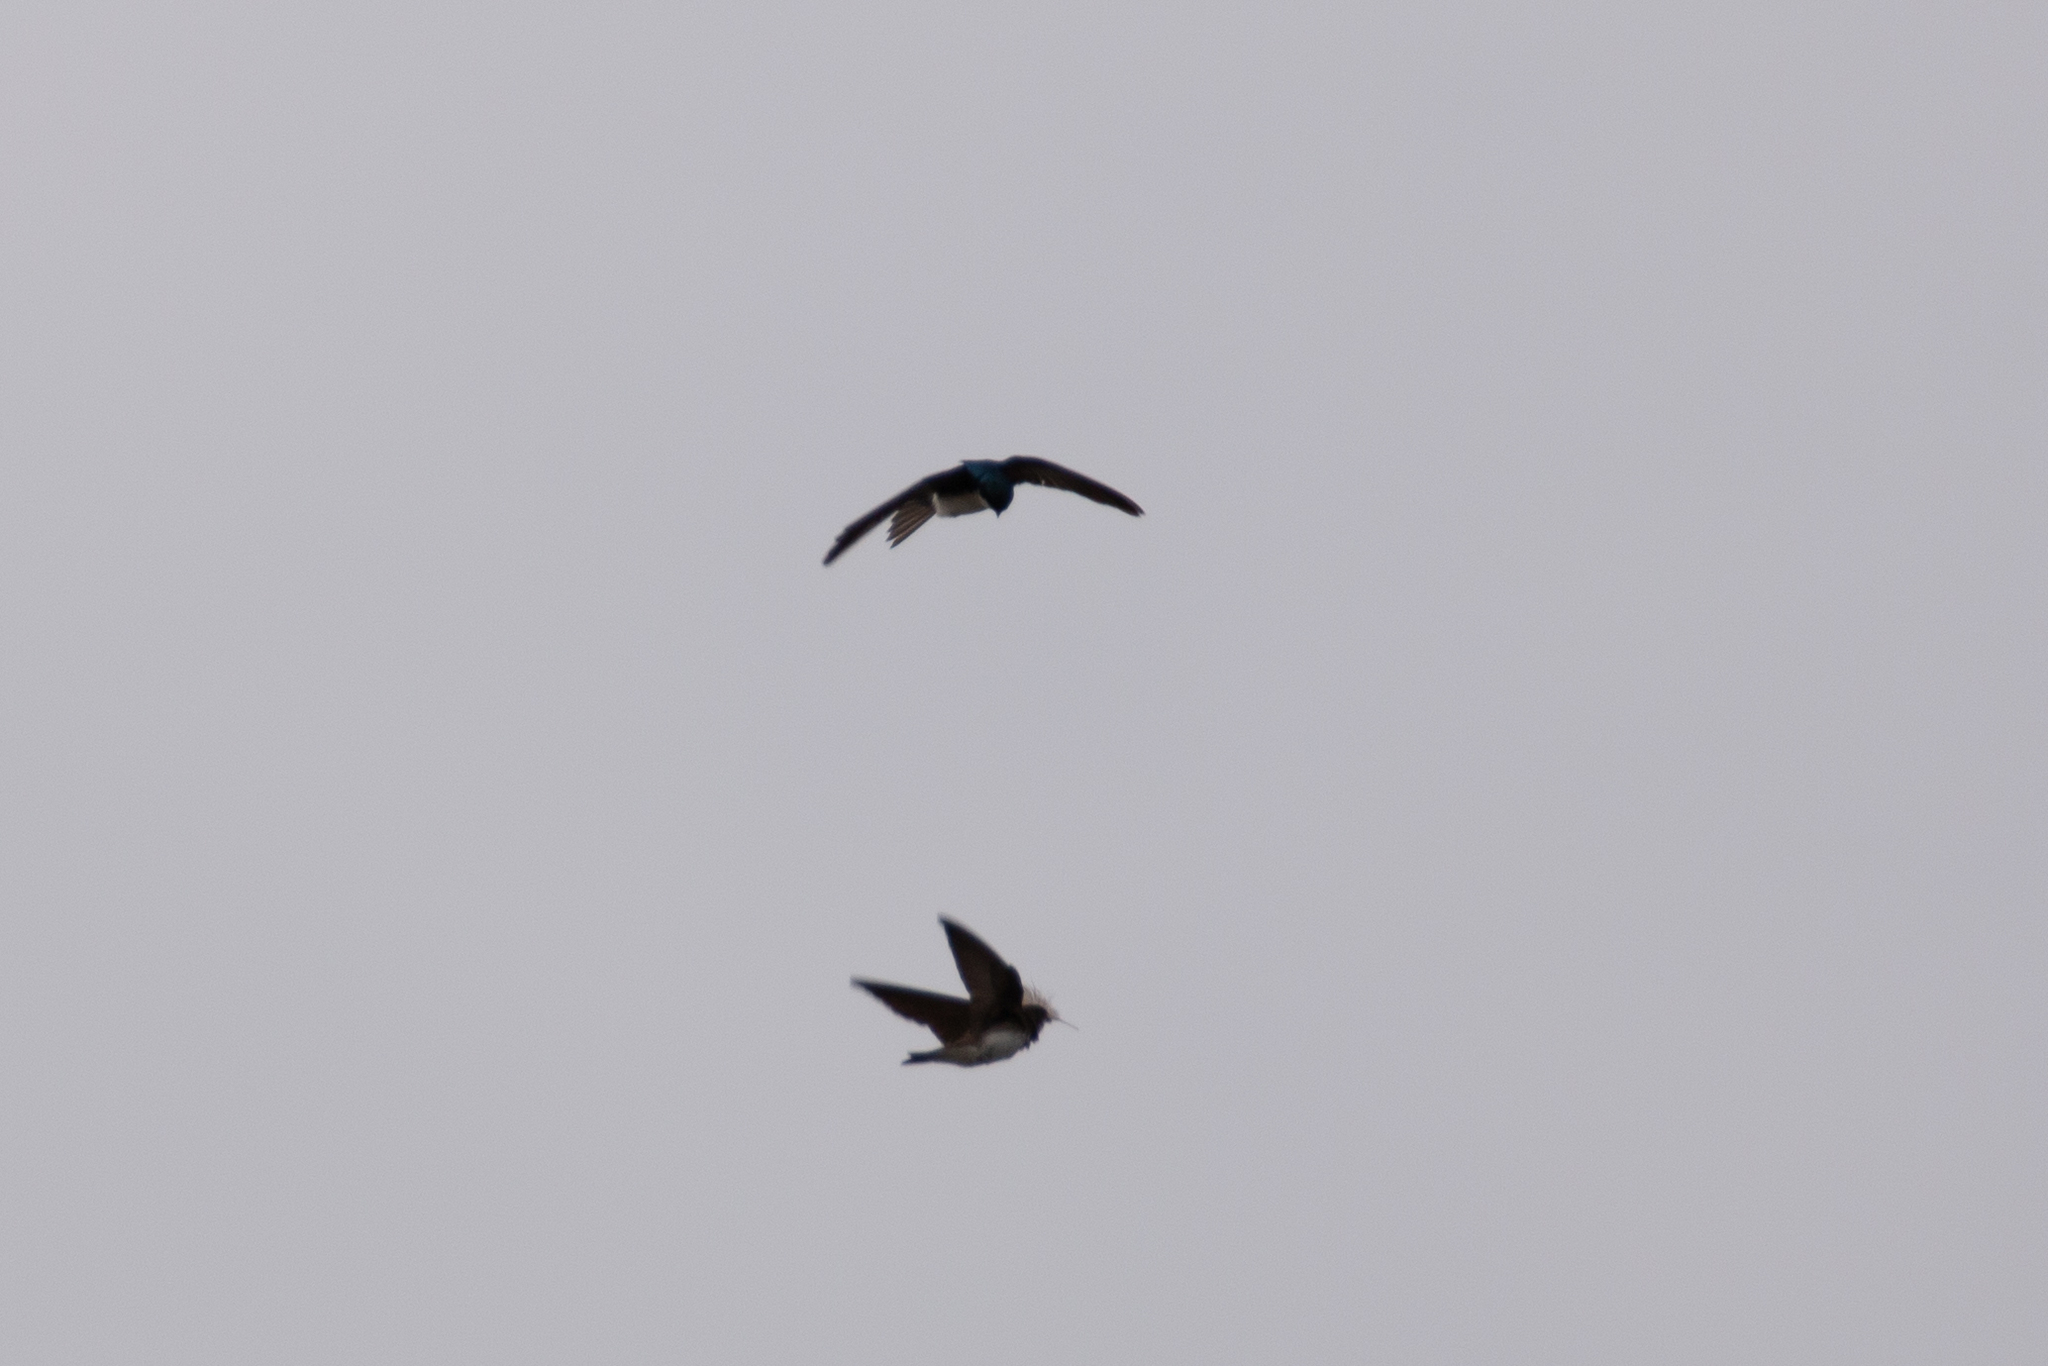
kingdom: Animalia
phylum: Chordata
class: Aves
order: Passeriformes
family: Hirundinidae
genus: Tachycineta
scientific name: Tachycineta bicolor
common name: Tree swallow
